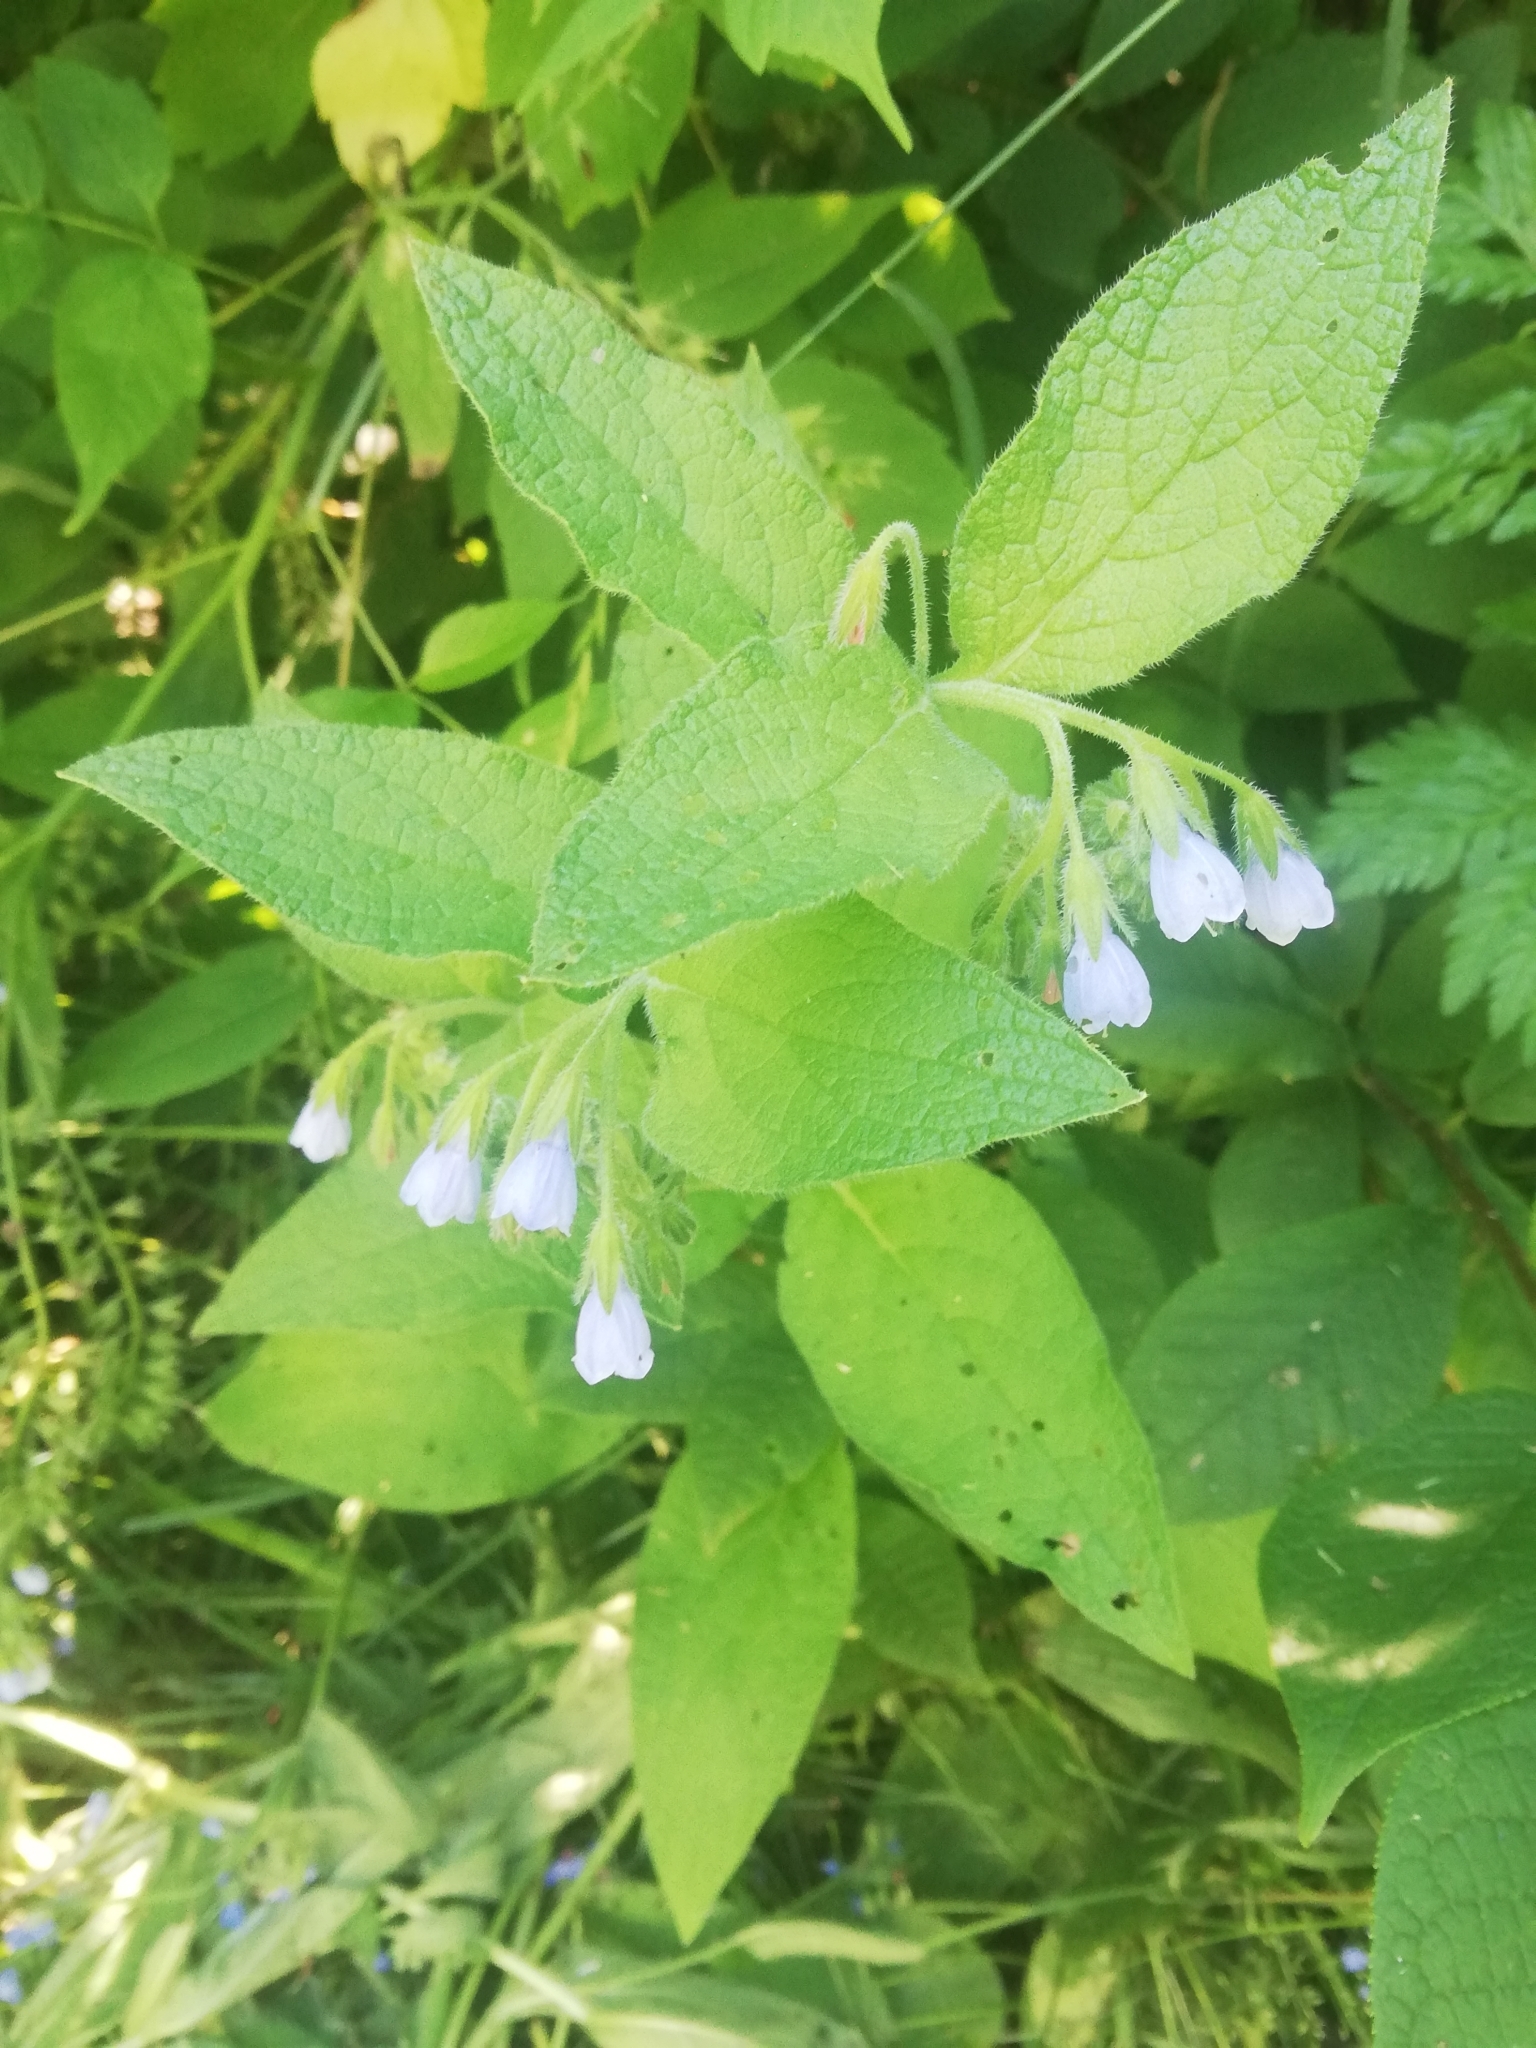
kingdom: Plantae
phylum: Tracheophyta
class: Magnoliopsida
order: Boraginales
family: Boraginaceae
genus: Symphytum
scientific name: Symphytum caucasicum
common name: Caucasian comfrey
